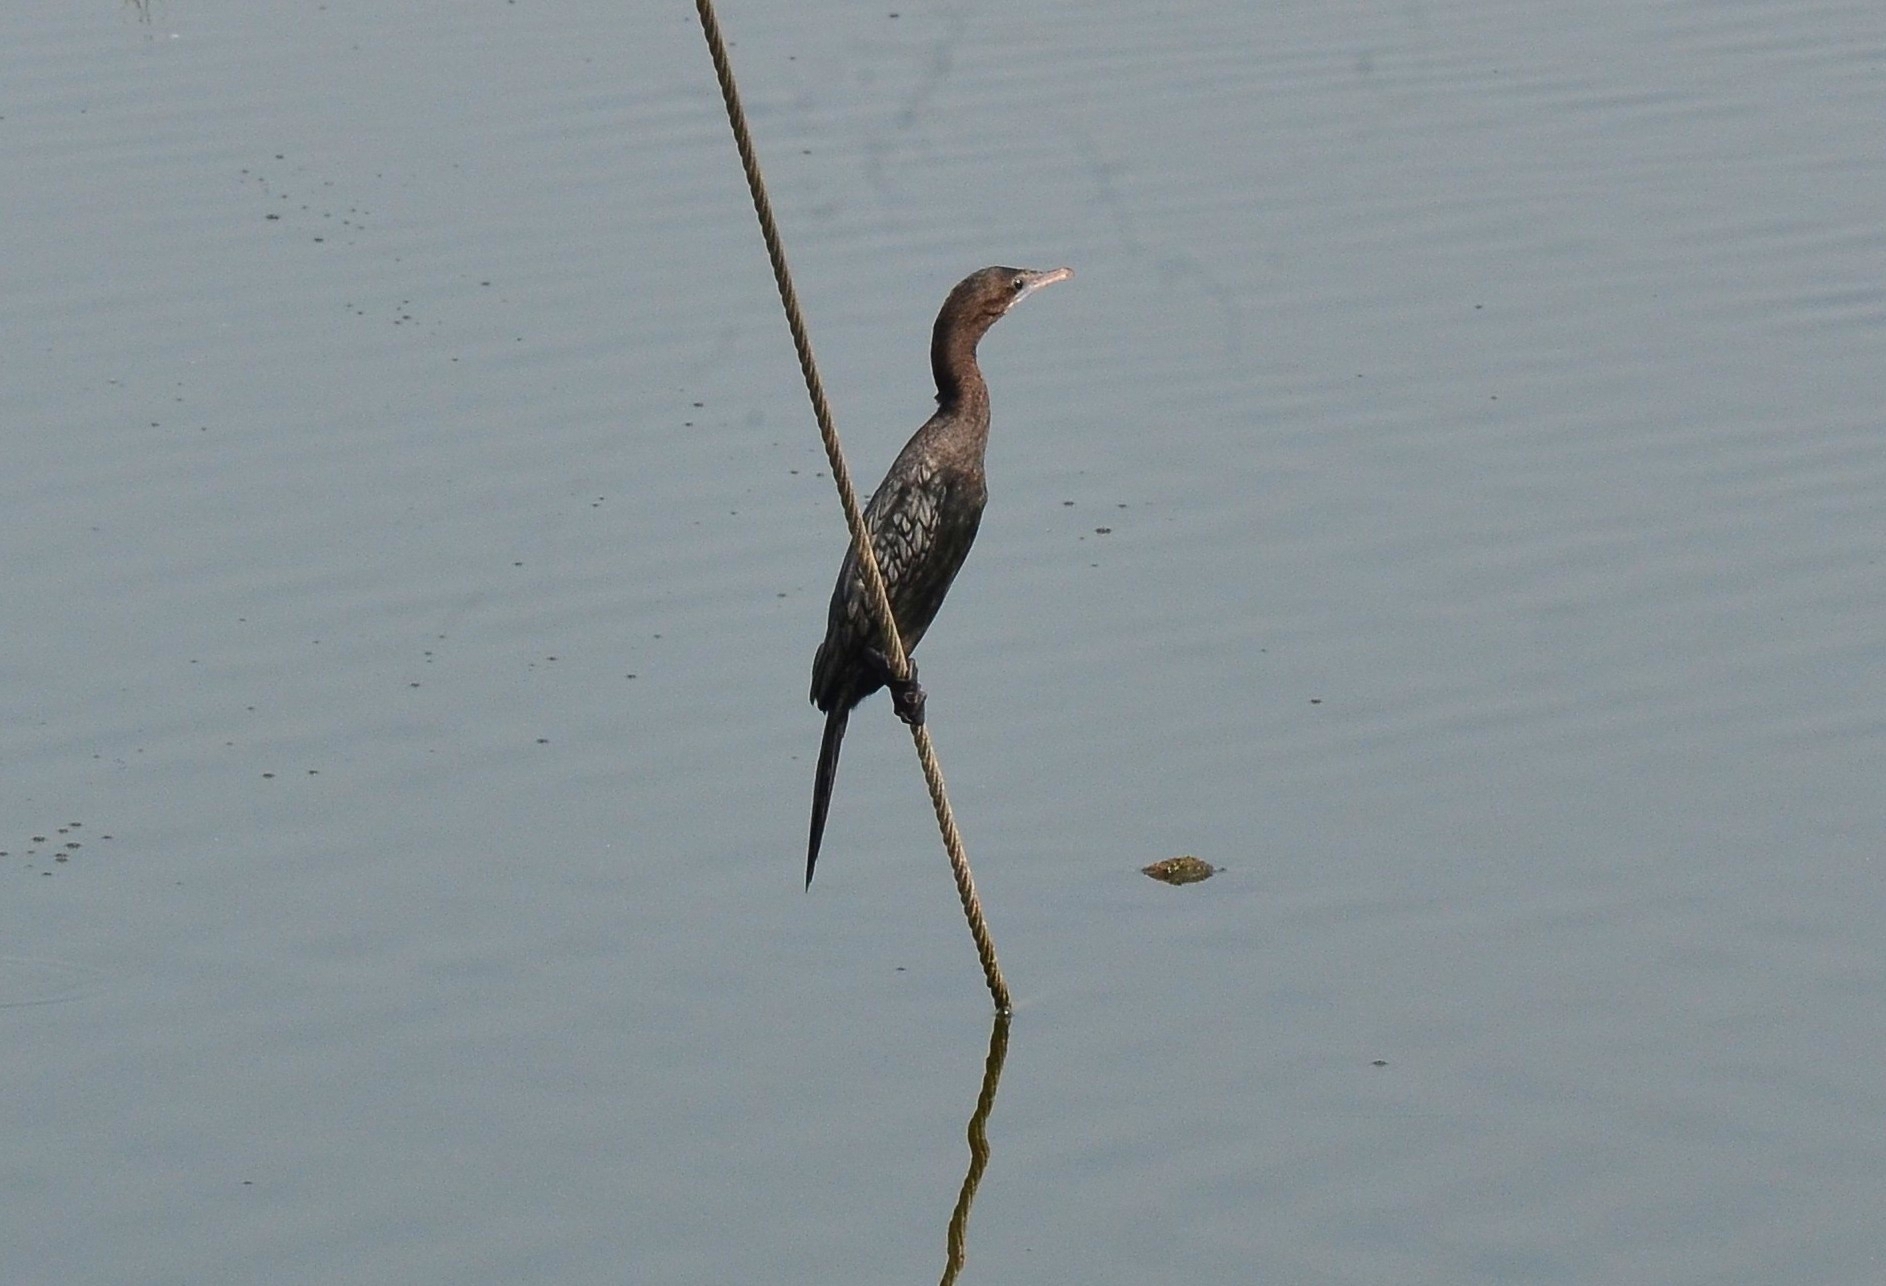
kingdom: Animalia
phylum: Chordata
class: Aves
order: Suliformes
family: Phalacrocoracidae
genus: Microcarbo
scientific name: Microcarbo niger
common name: Little cormorant
